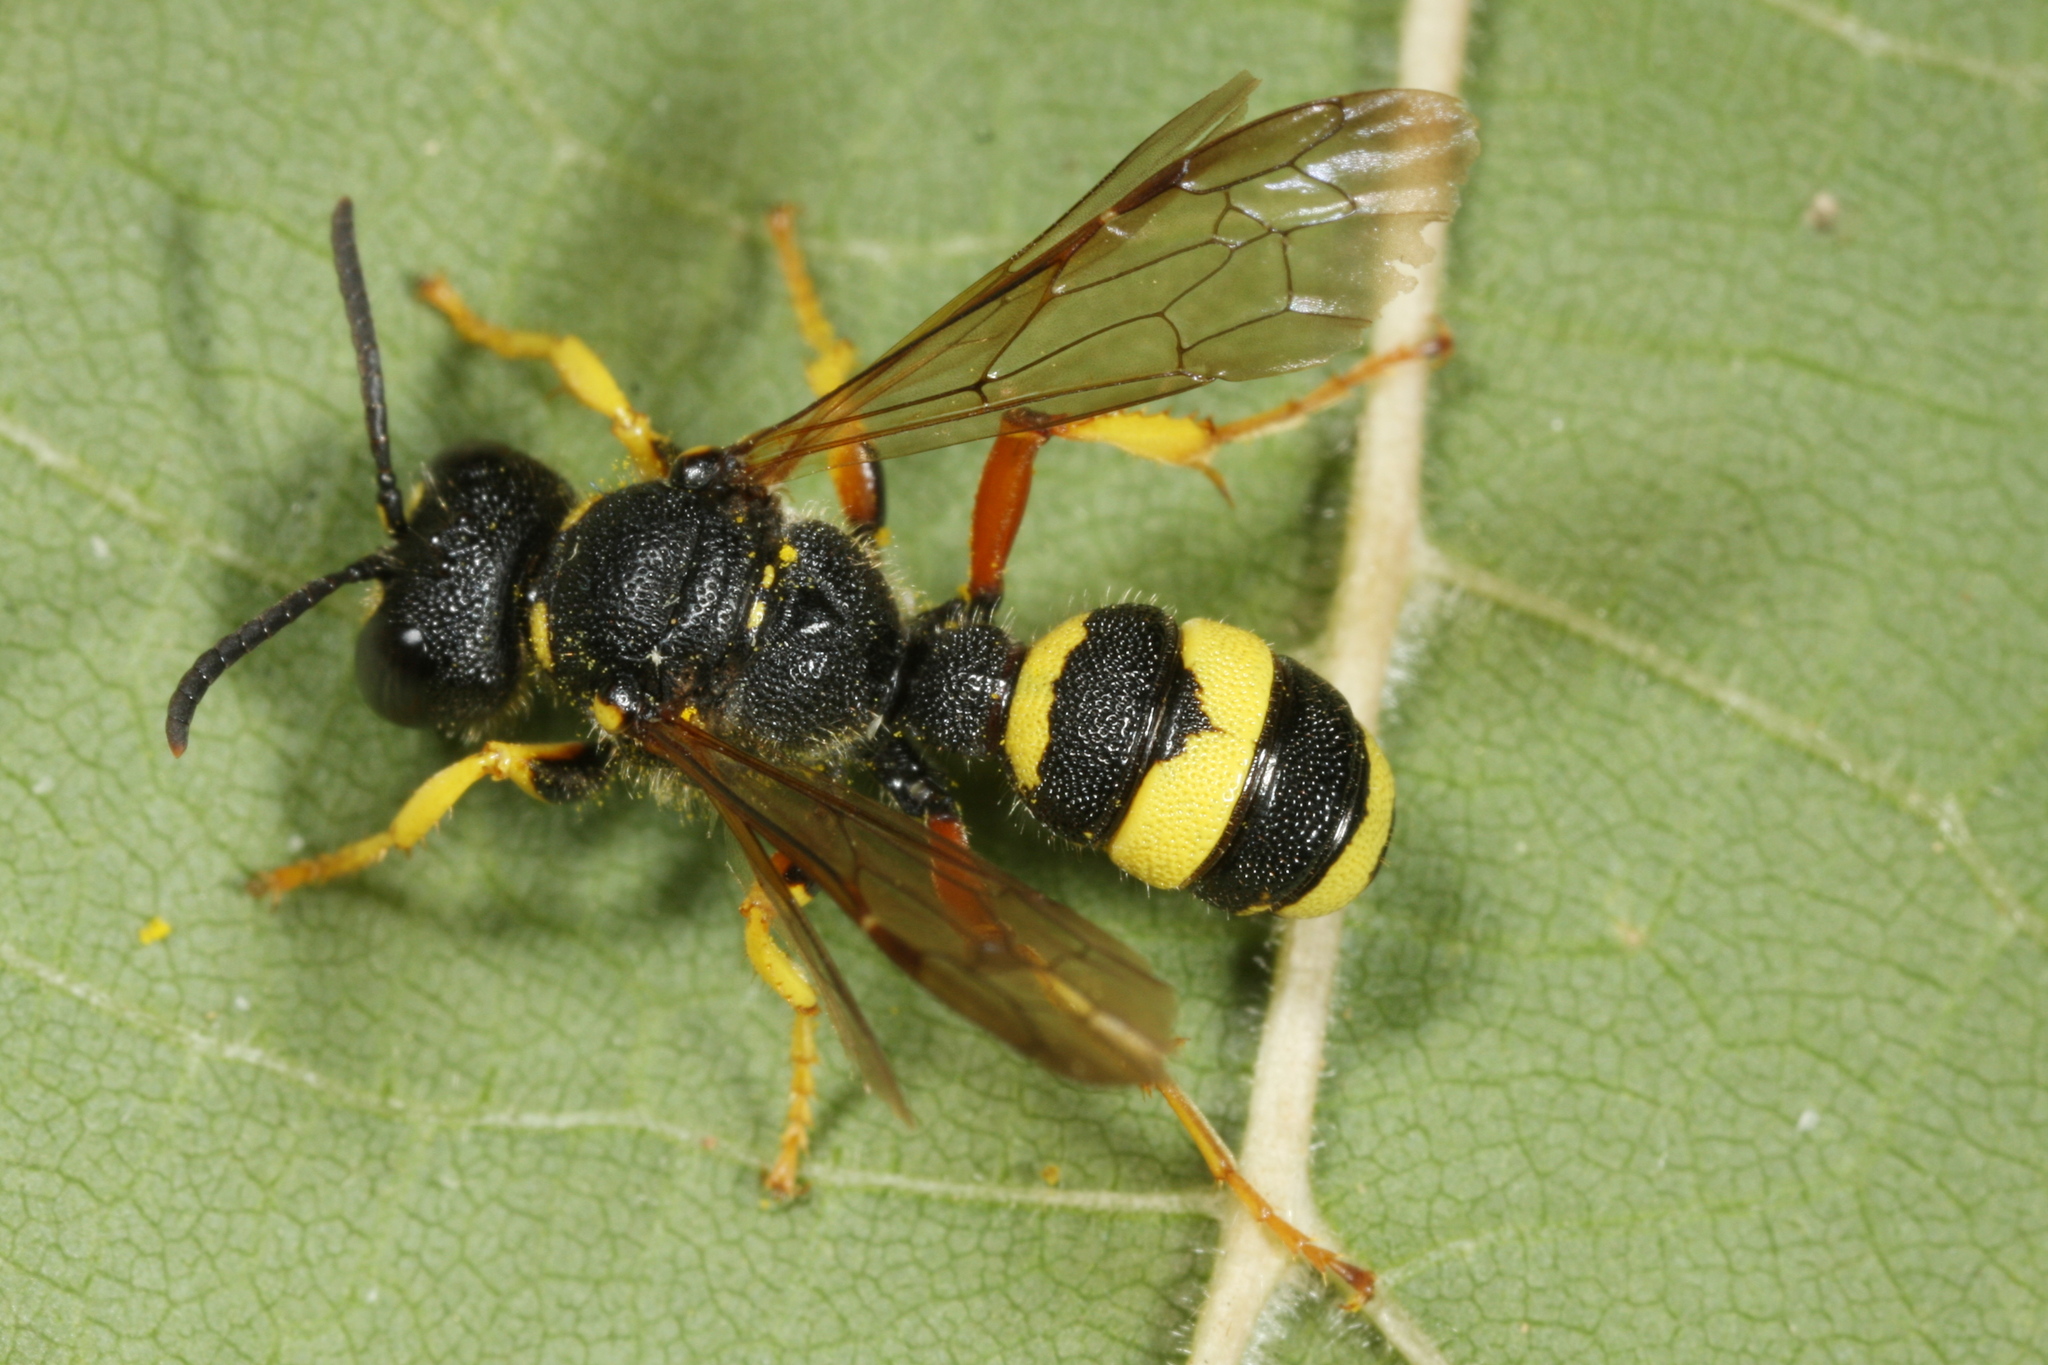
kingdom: Animalia
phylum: Arthropoda
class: Insecta
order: Hymenoptera
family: Crabronidae
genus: Cerceris
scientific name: Cerceris rybyensis
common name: Ornate tailed digger wasp
